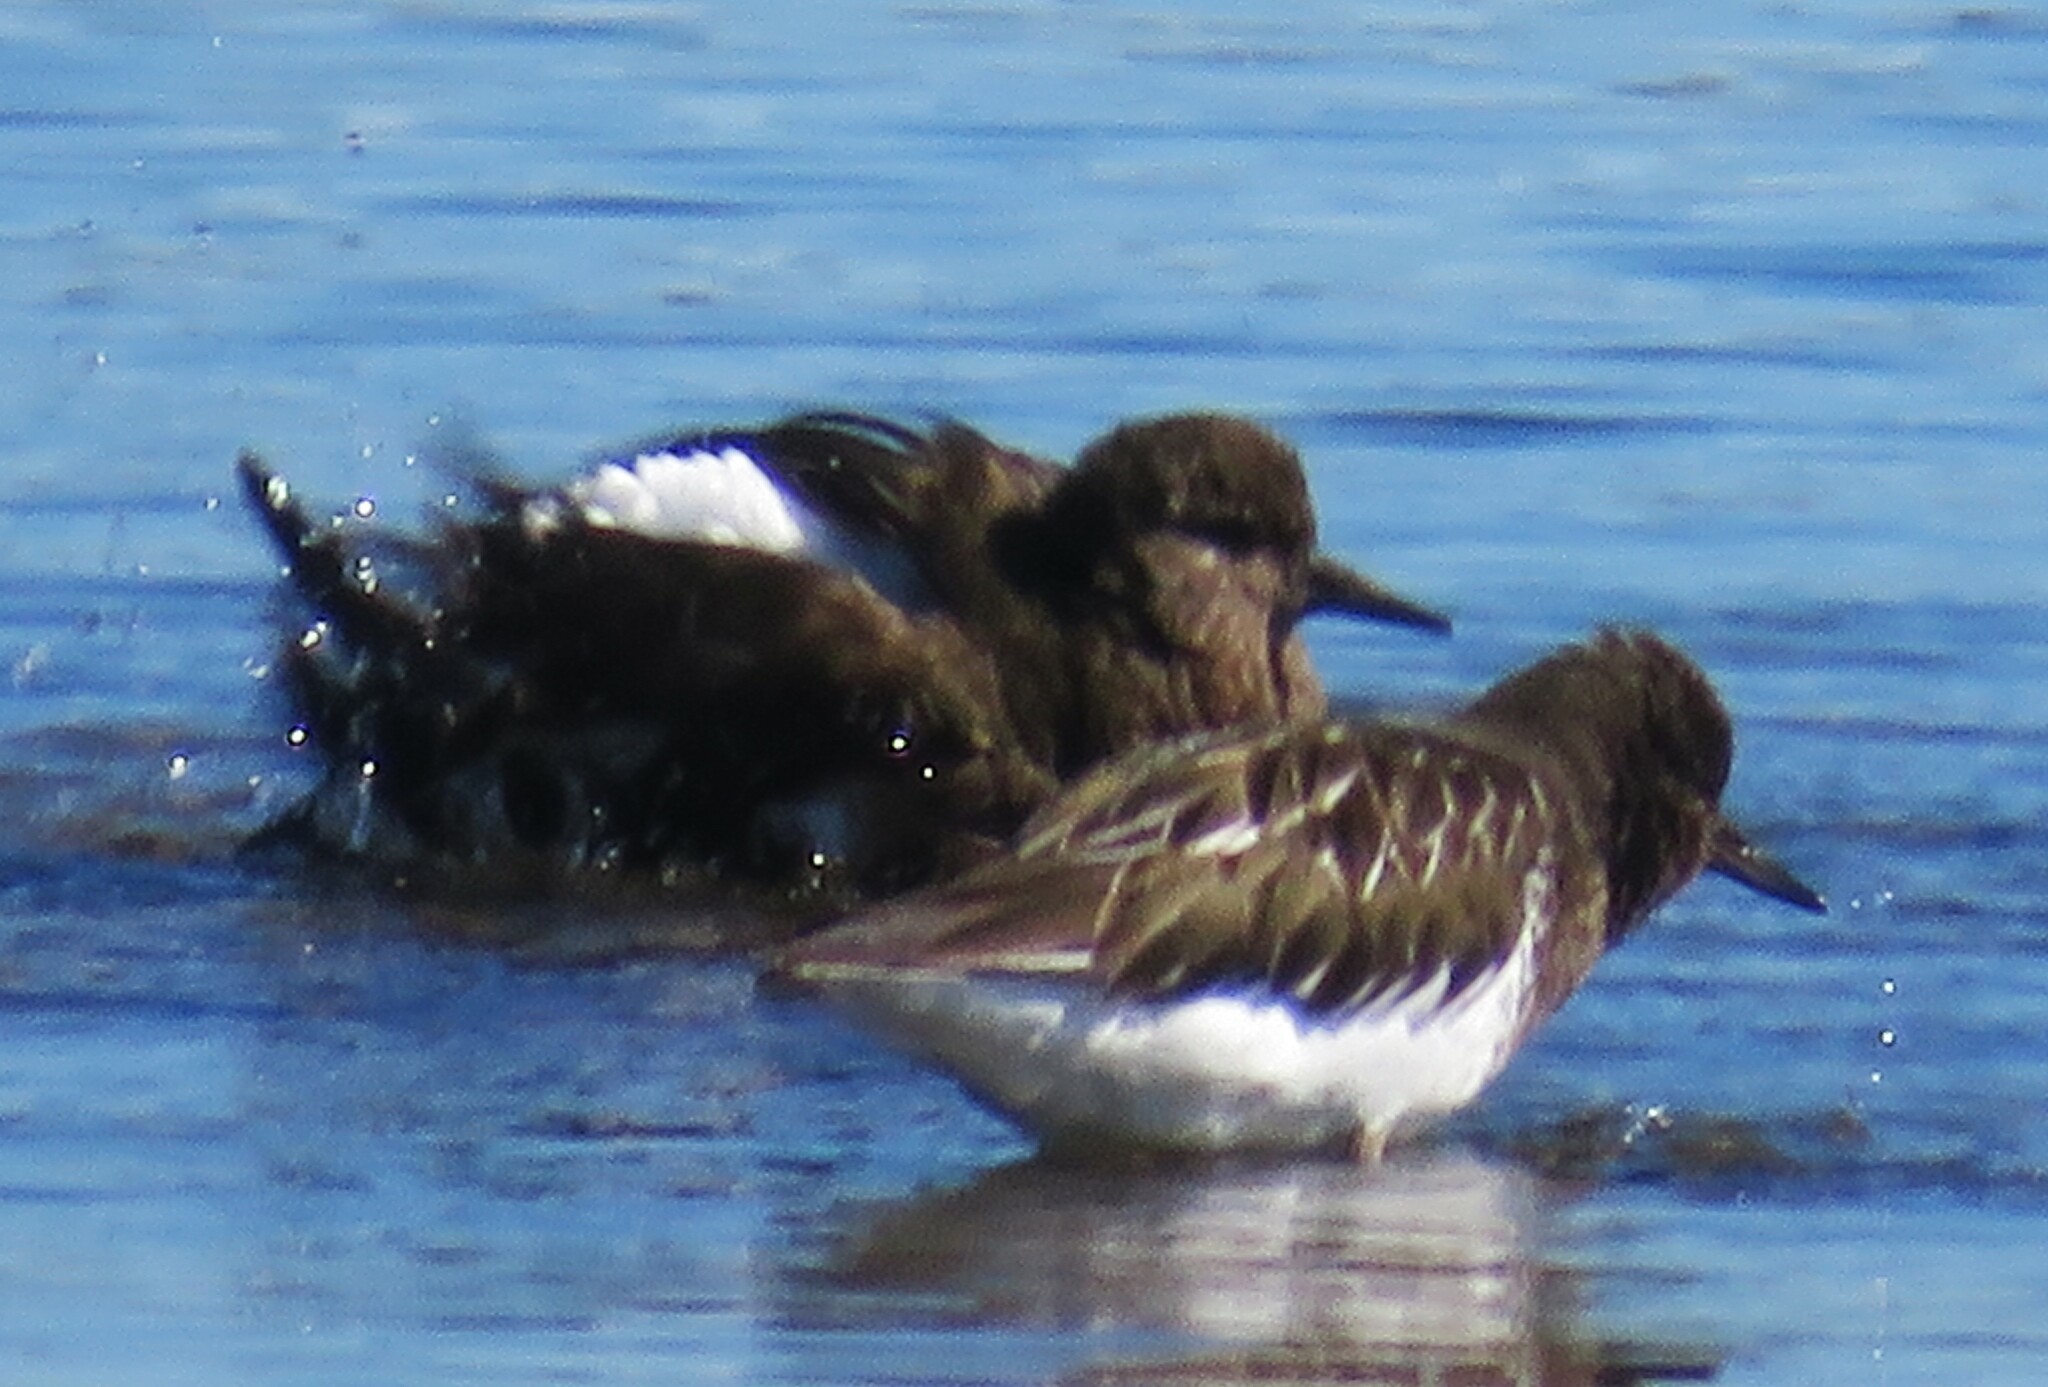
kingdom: Animalia
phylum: Chordata
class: Aves
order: Charadriiformes
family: Scolopacidae
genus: Arenaria
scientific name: Arenaria melanocephala
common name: Black turnstone
